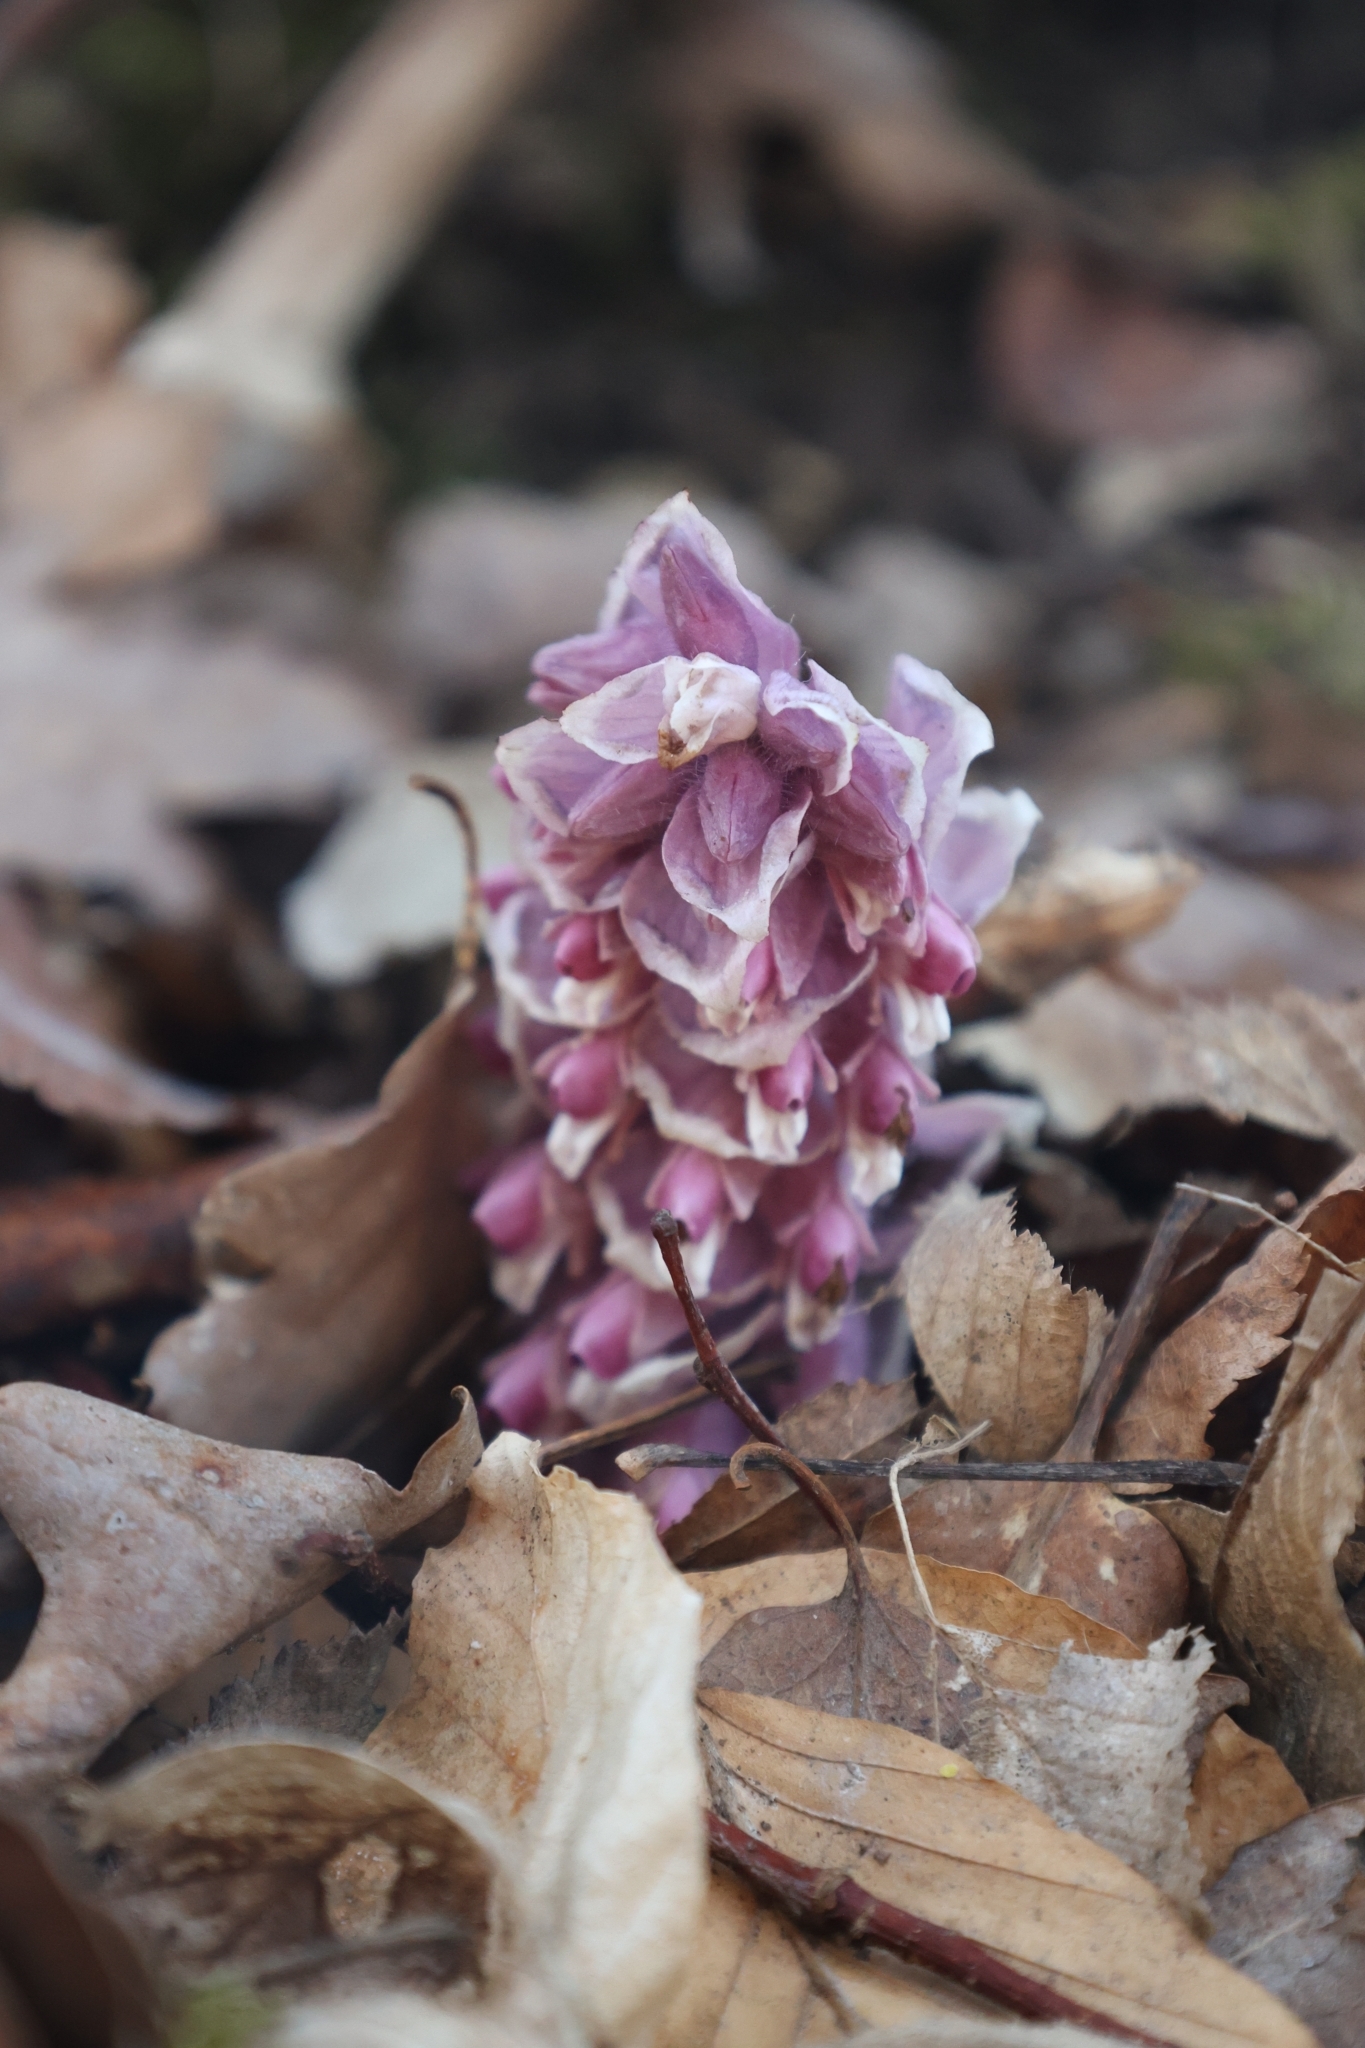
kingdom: Plantae
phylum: Tracheophyta
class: Magnoliopsida
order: Lamiales
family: Orobanchaceae
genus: Lathraea
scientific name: Lathraea squamaria
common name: Toothwort
